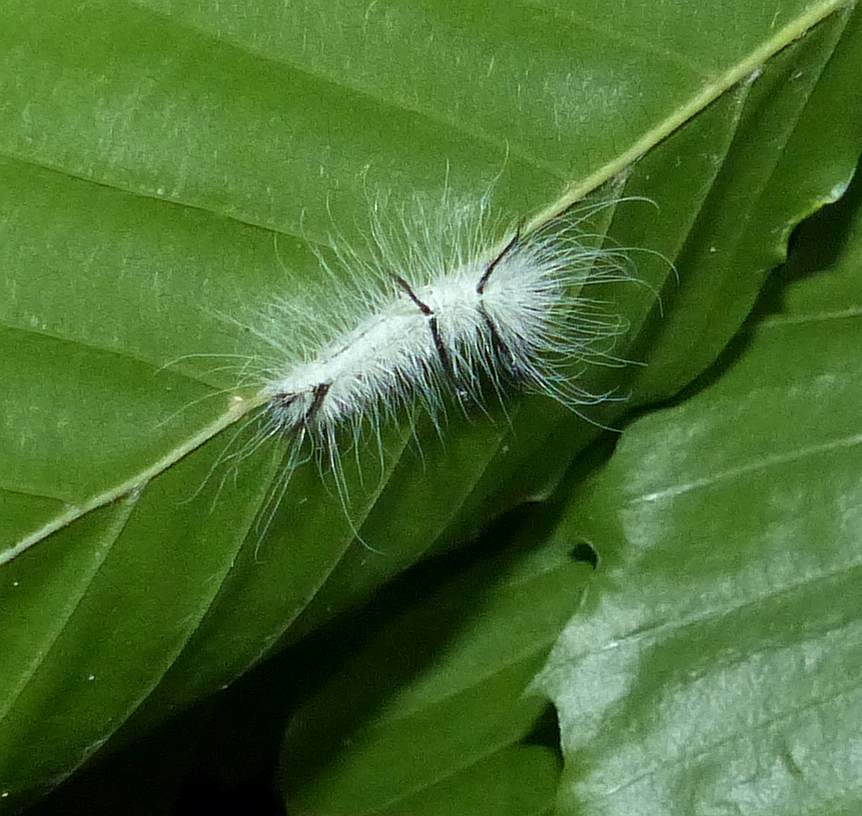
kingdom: Animalia
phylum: Arthropoda
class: Insecta
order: Lepidoptera
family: Noctuidae
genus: Acronicta
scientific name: Acronicta americana
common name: American dagger
